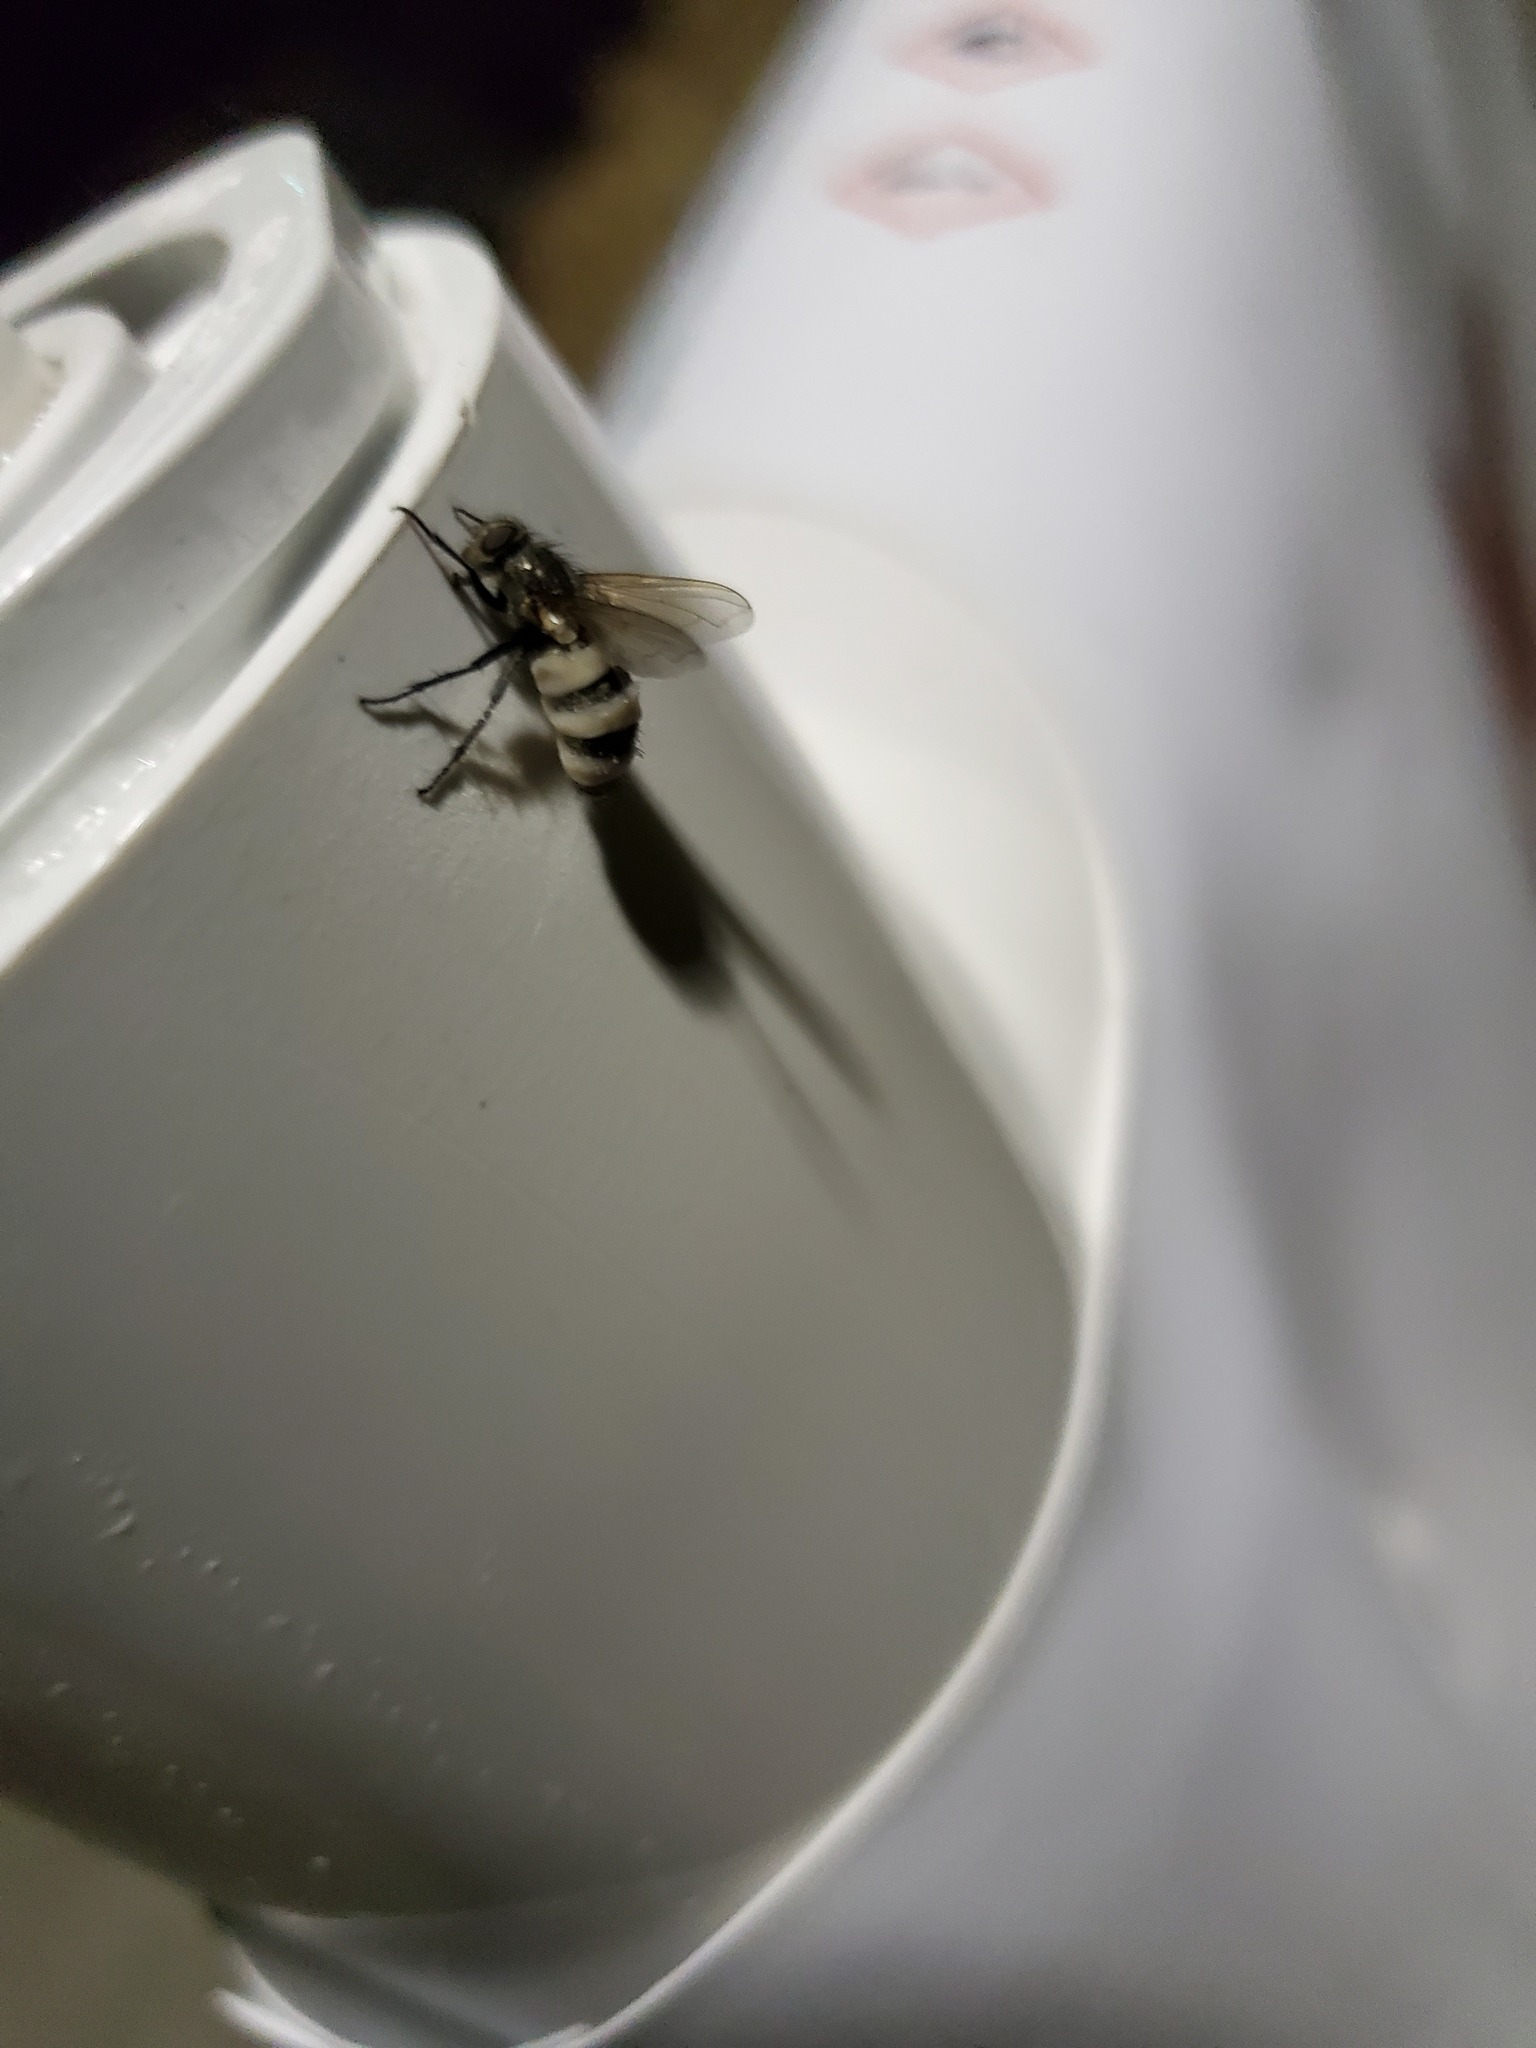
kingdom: Fungi
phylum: Entomophthoromycota
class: Entomophthoromycetes
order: Entomophthorales
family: Entomophthoraceae
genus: Entomophthora
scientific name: Entomophthora
